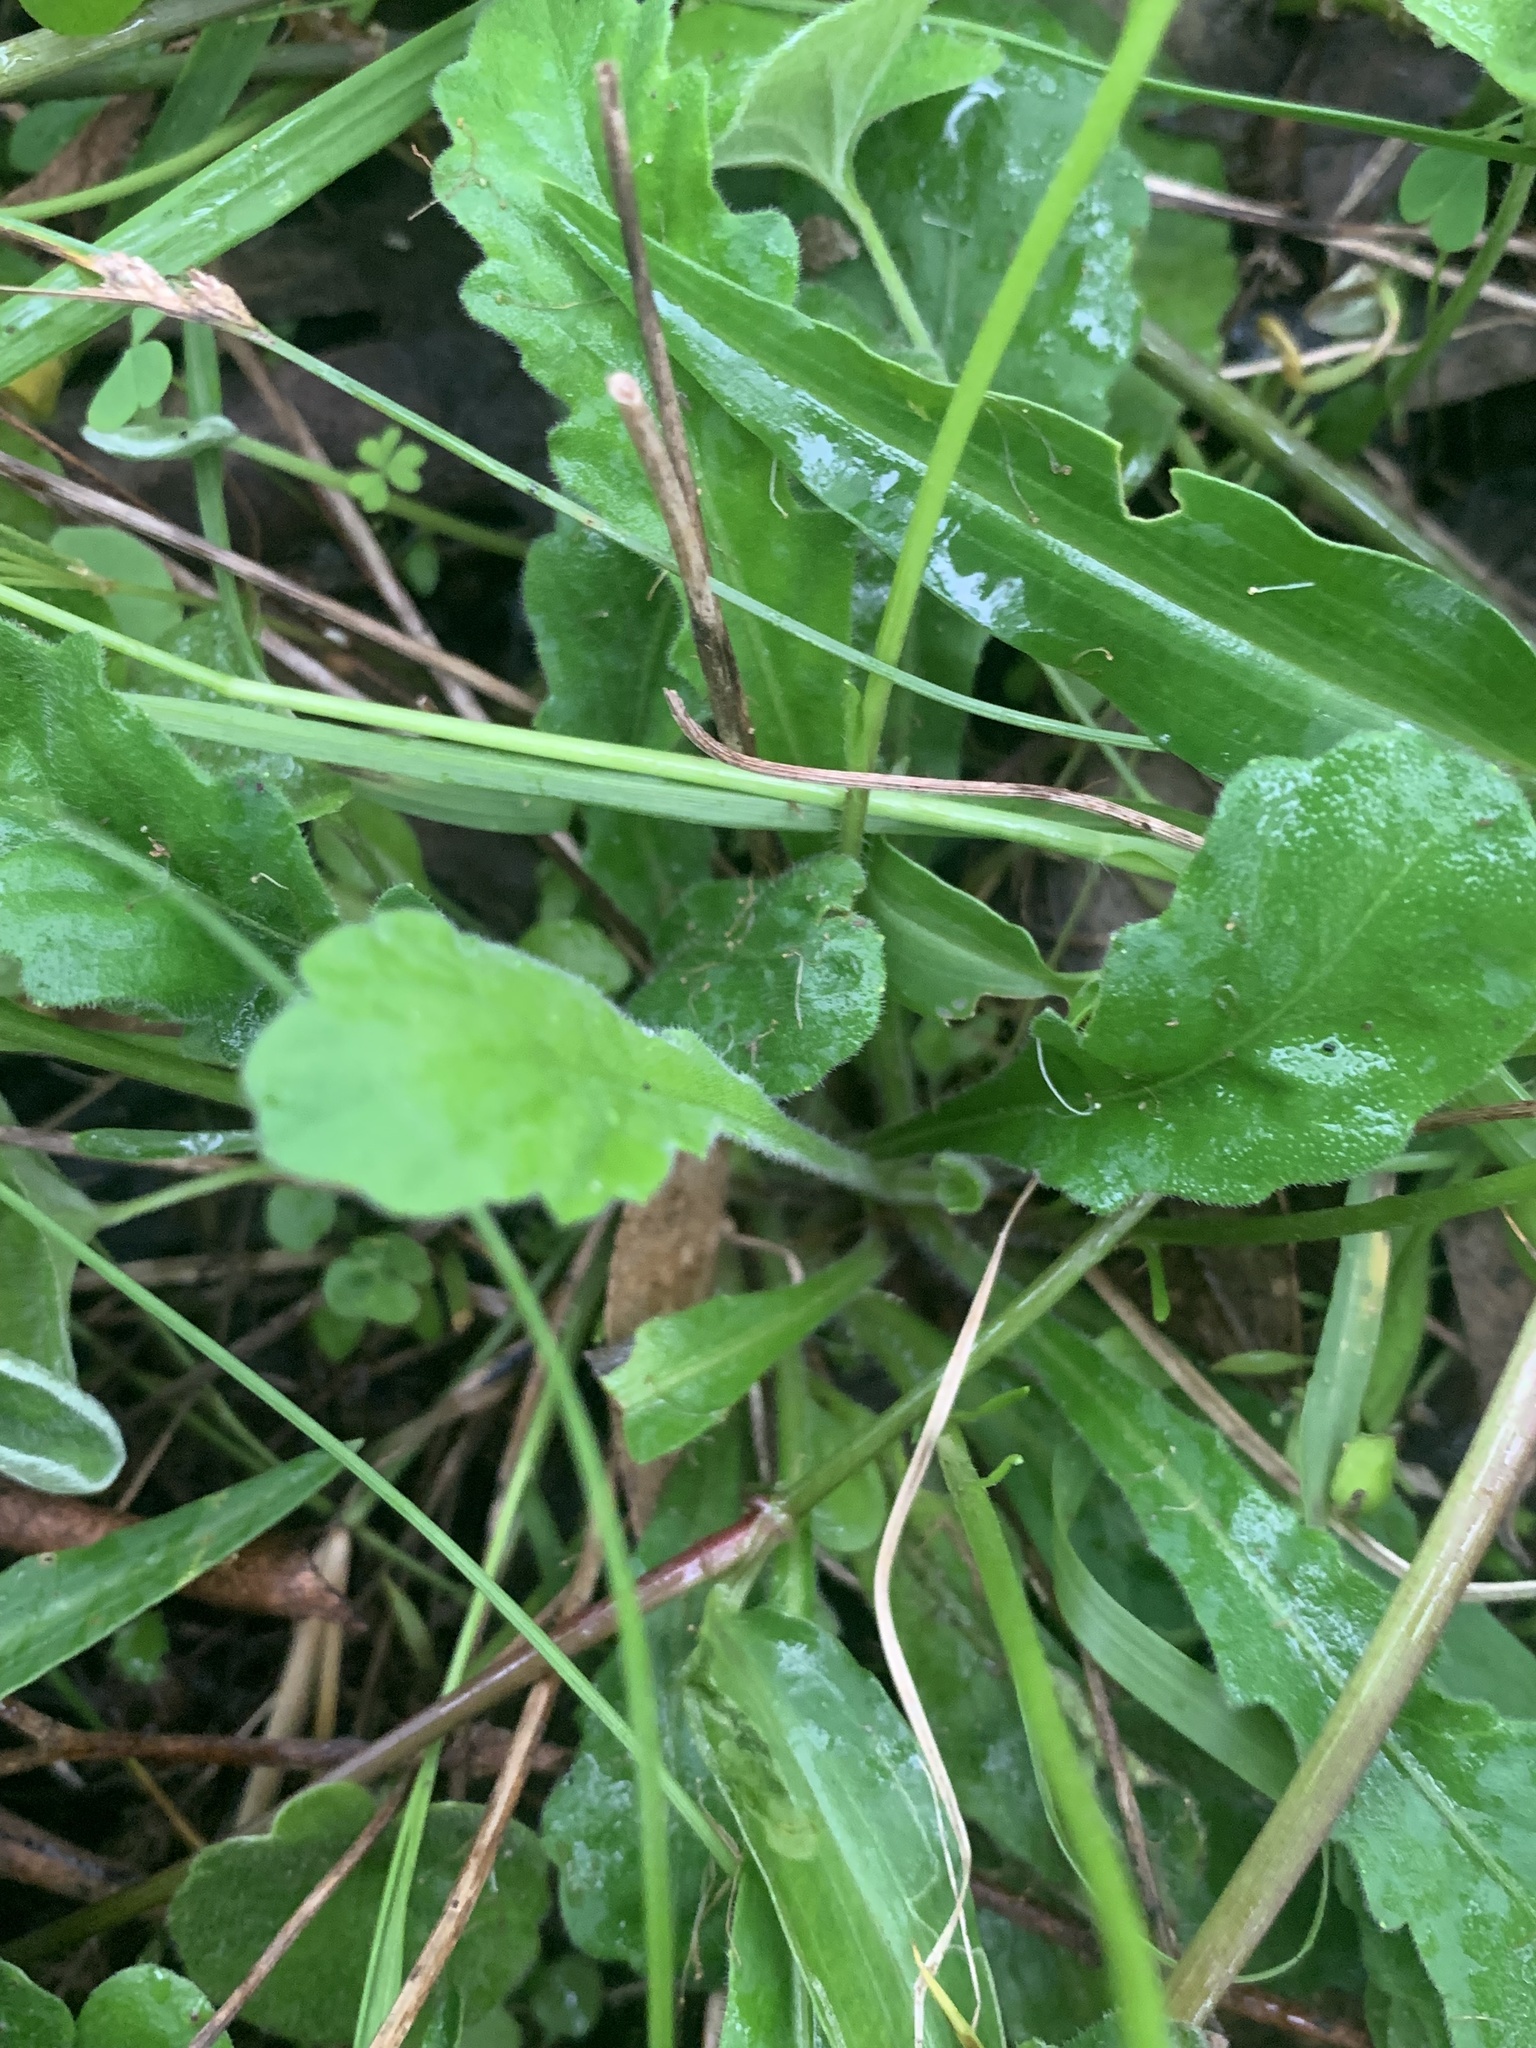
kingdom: Plantae
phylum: Tracheophyta
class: Magnoliopsida
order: Asterales
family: Asteraceae
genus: Lagenophora
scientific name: Lagenophora brachyglossa
